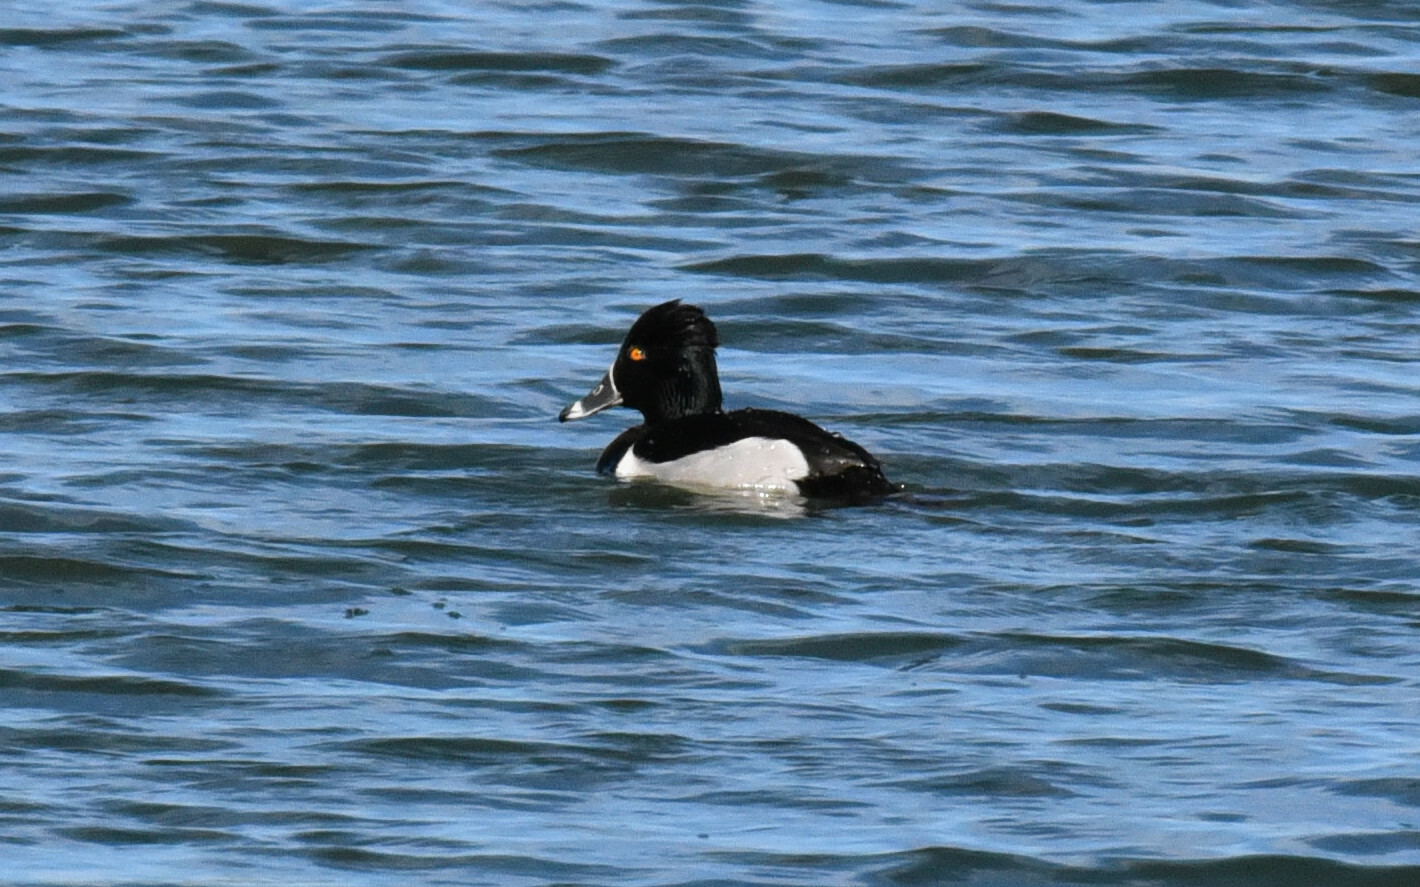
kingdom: Animalia
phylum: Chordata
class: Aves
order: Anseriformes
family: Anatidae
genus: Aythya
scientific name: Aythya collaris
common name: Ring-necked duck
